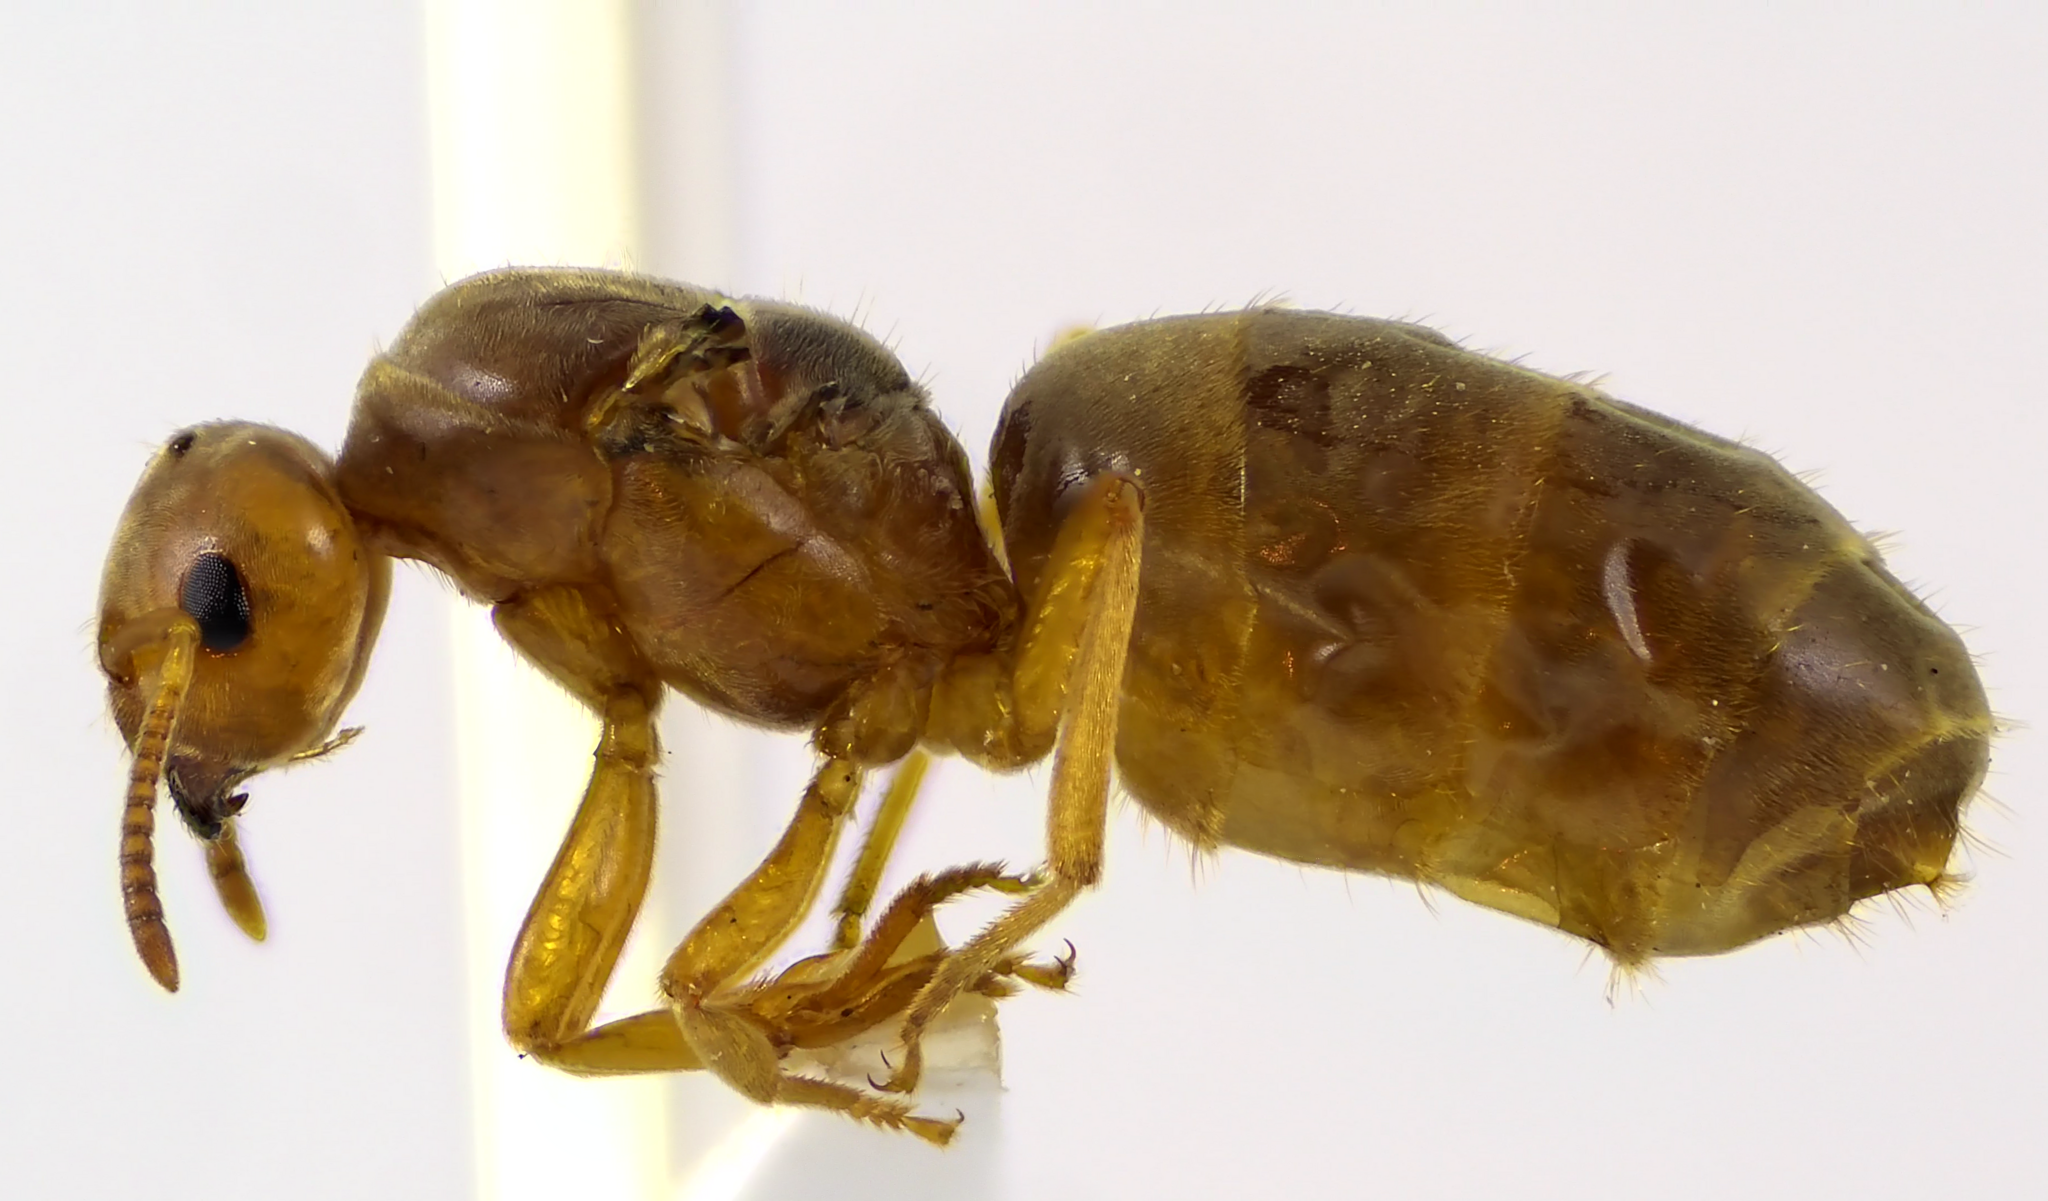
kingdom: Animalia
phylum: Arthropoda
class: Insecta
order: Hymenoptera
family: Formicidae
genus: Lasius
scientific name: Lasius
